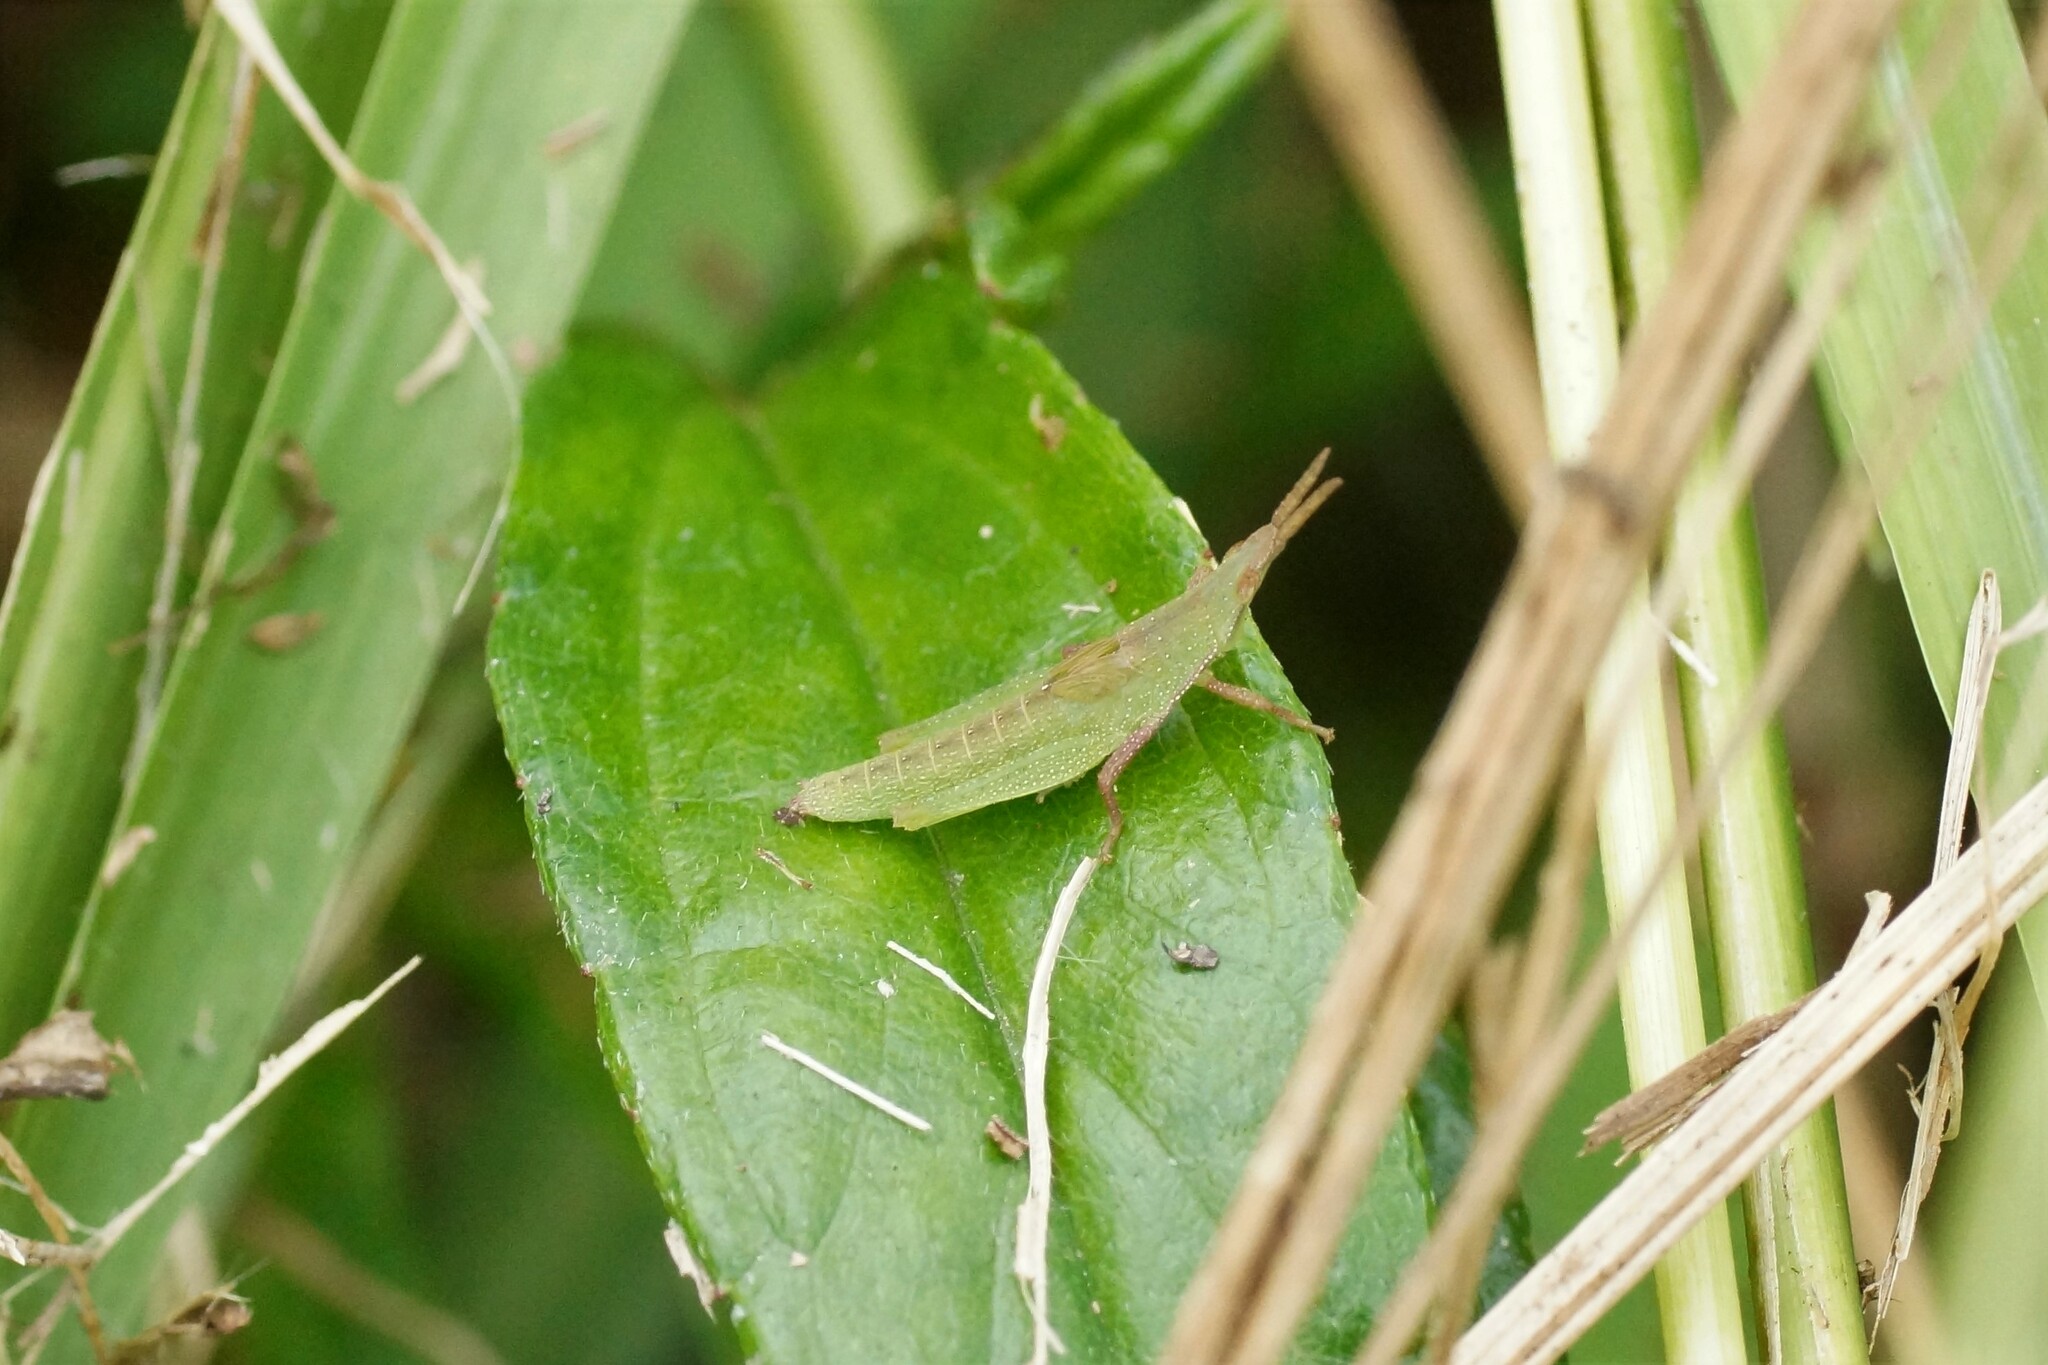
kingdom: Animalia
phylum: Arthropoda
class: Insecta
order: Orthoptera
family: Pyrgomorphidae
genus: Atractomorpha
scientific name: Atractomorpha similis
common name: Northern grass pyrgomorph
